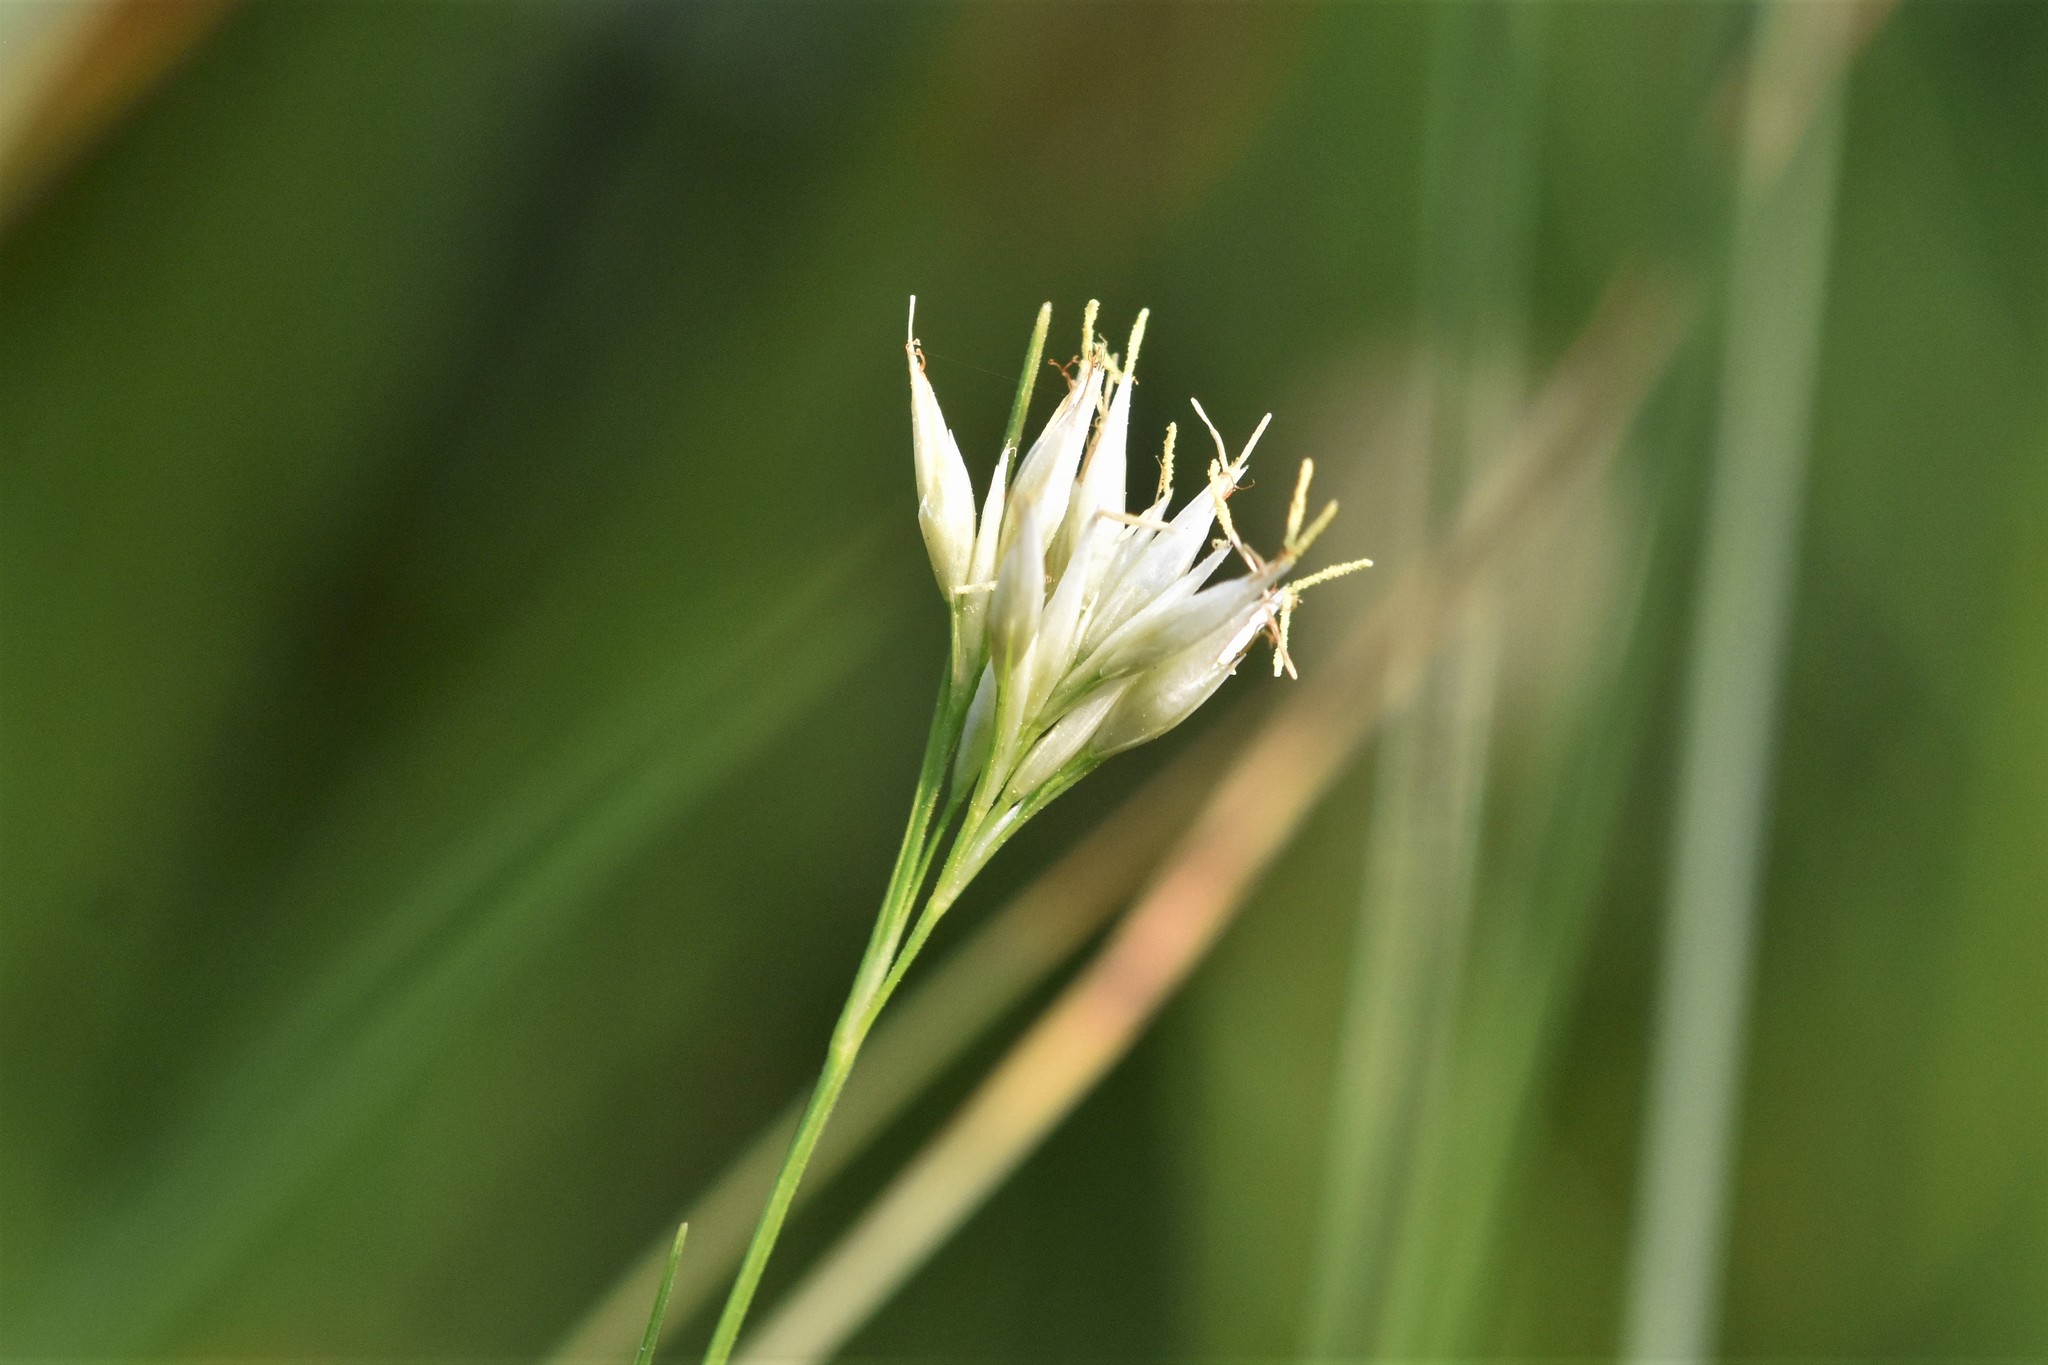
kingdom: Plantae
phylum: Tracheophyta
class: Liliopsida
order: Poales
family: Cyperaceae
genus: Rhynchospora
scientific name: Rhynchospora alba
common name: White beak-sedge
